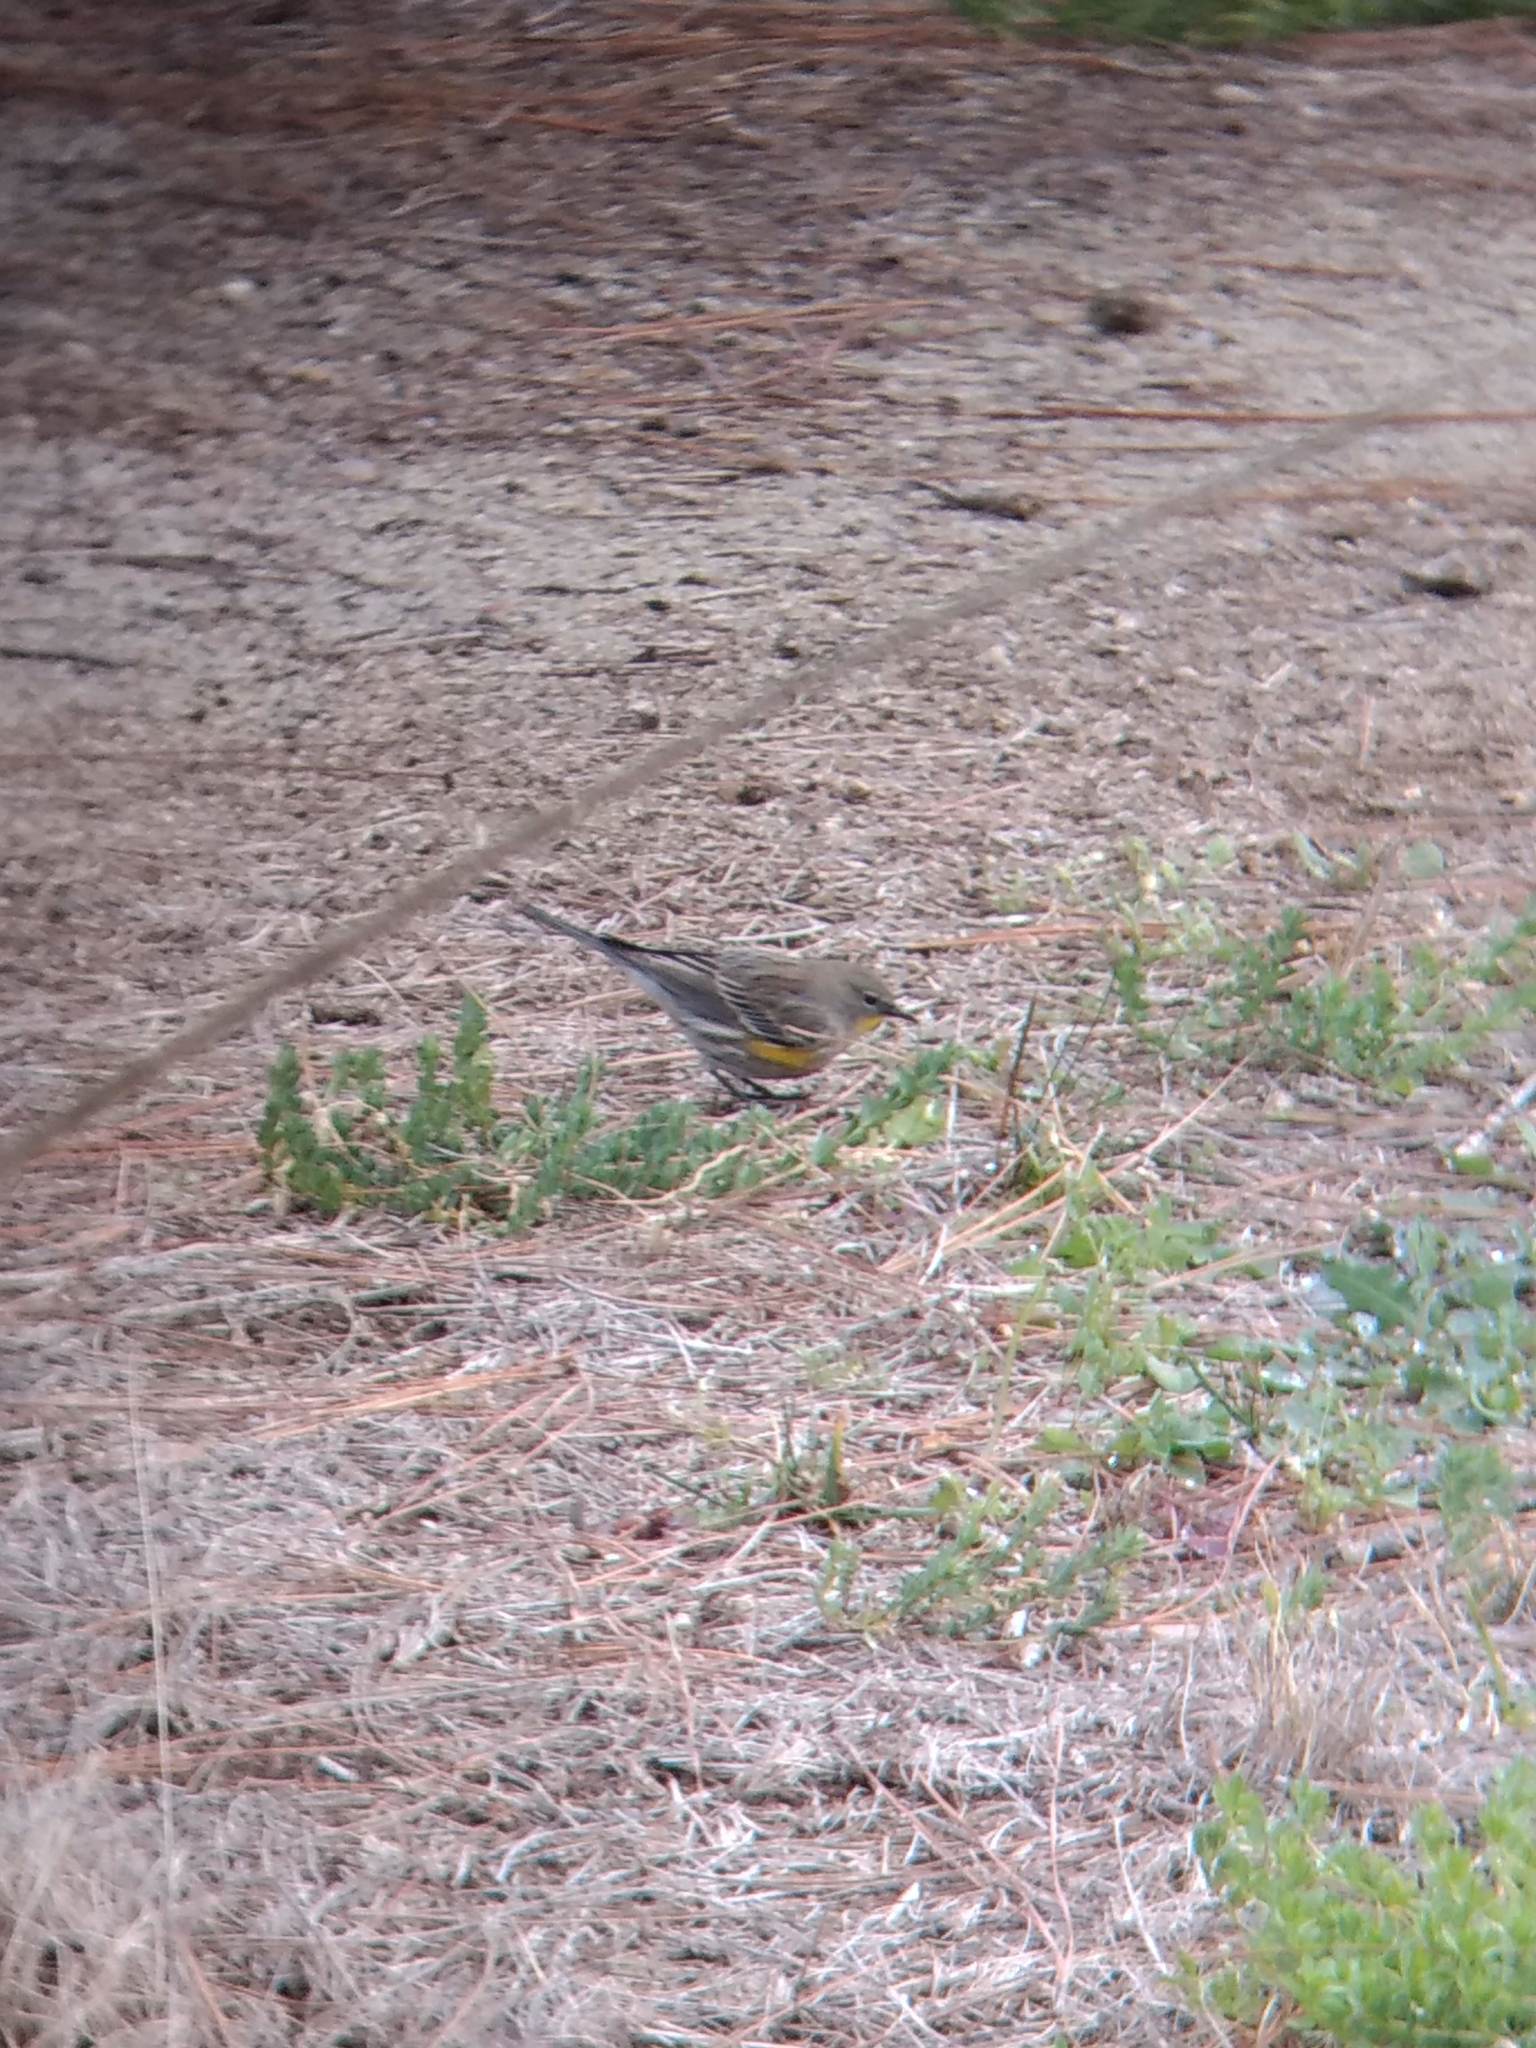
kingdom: Animalia
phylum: Chordata
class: Aves
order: Passeriformes
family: Parulidae
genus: Setophaga
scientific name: Setophaga coronata
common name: Myrtle warbler
